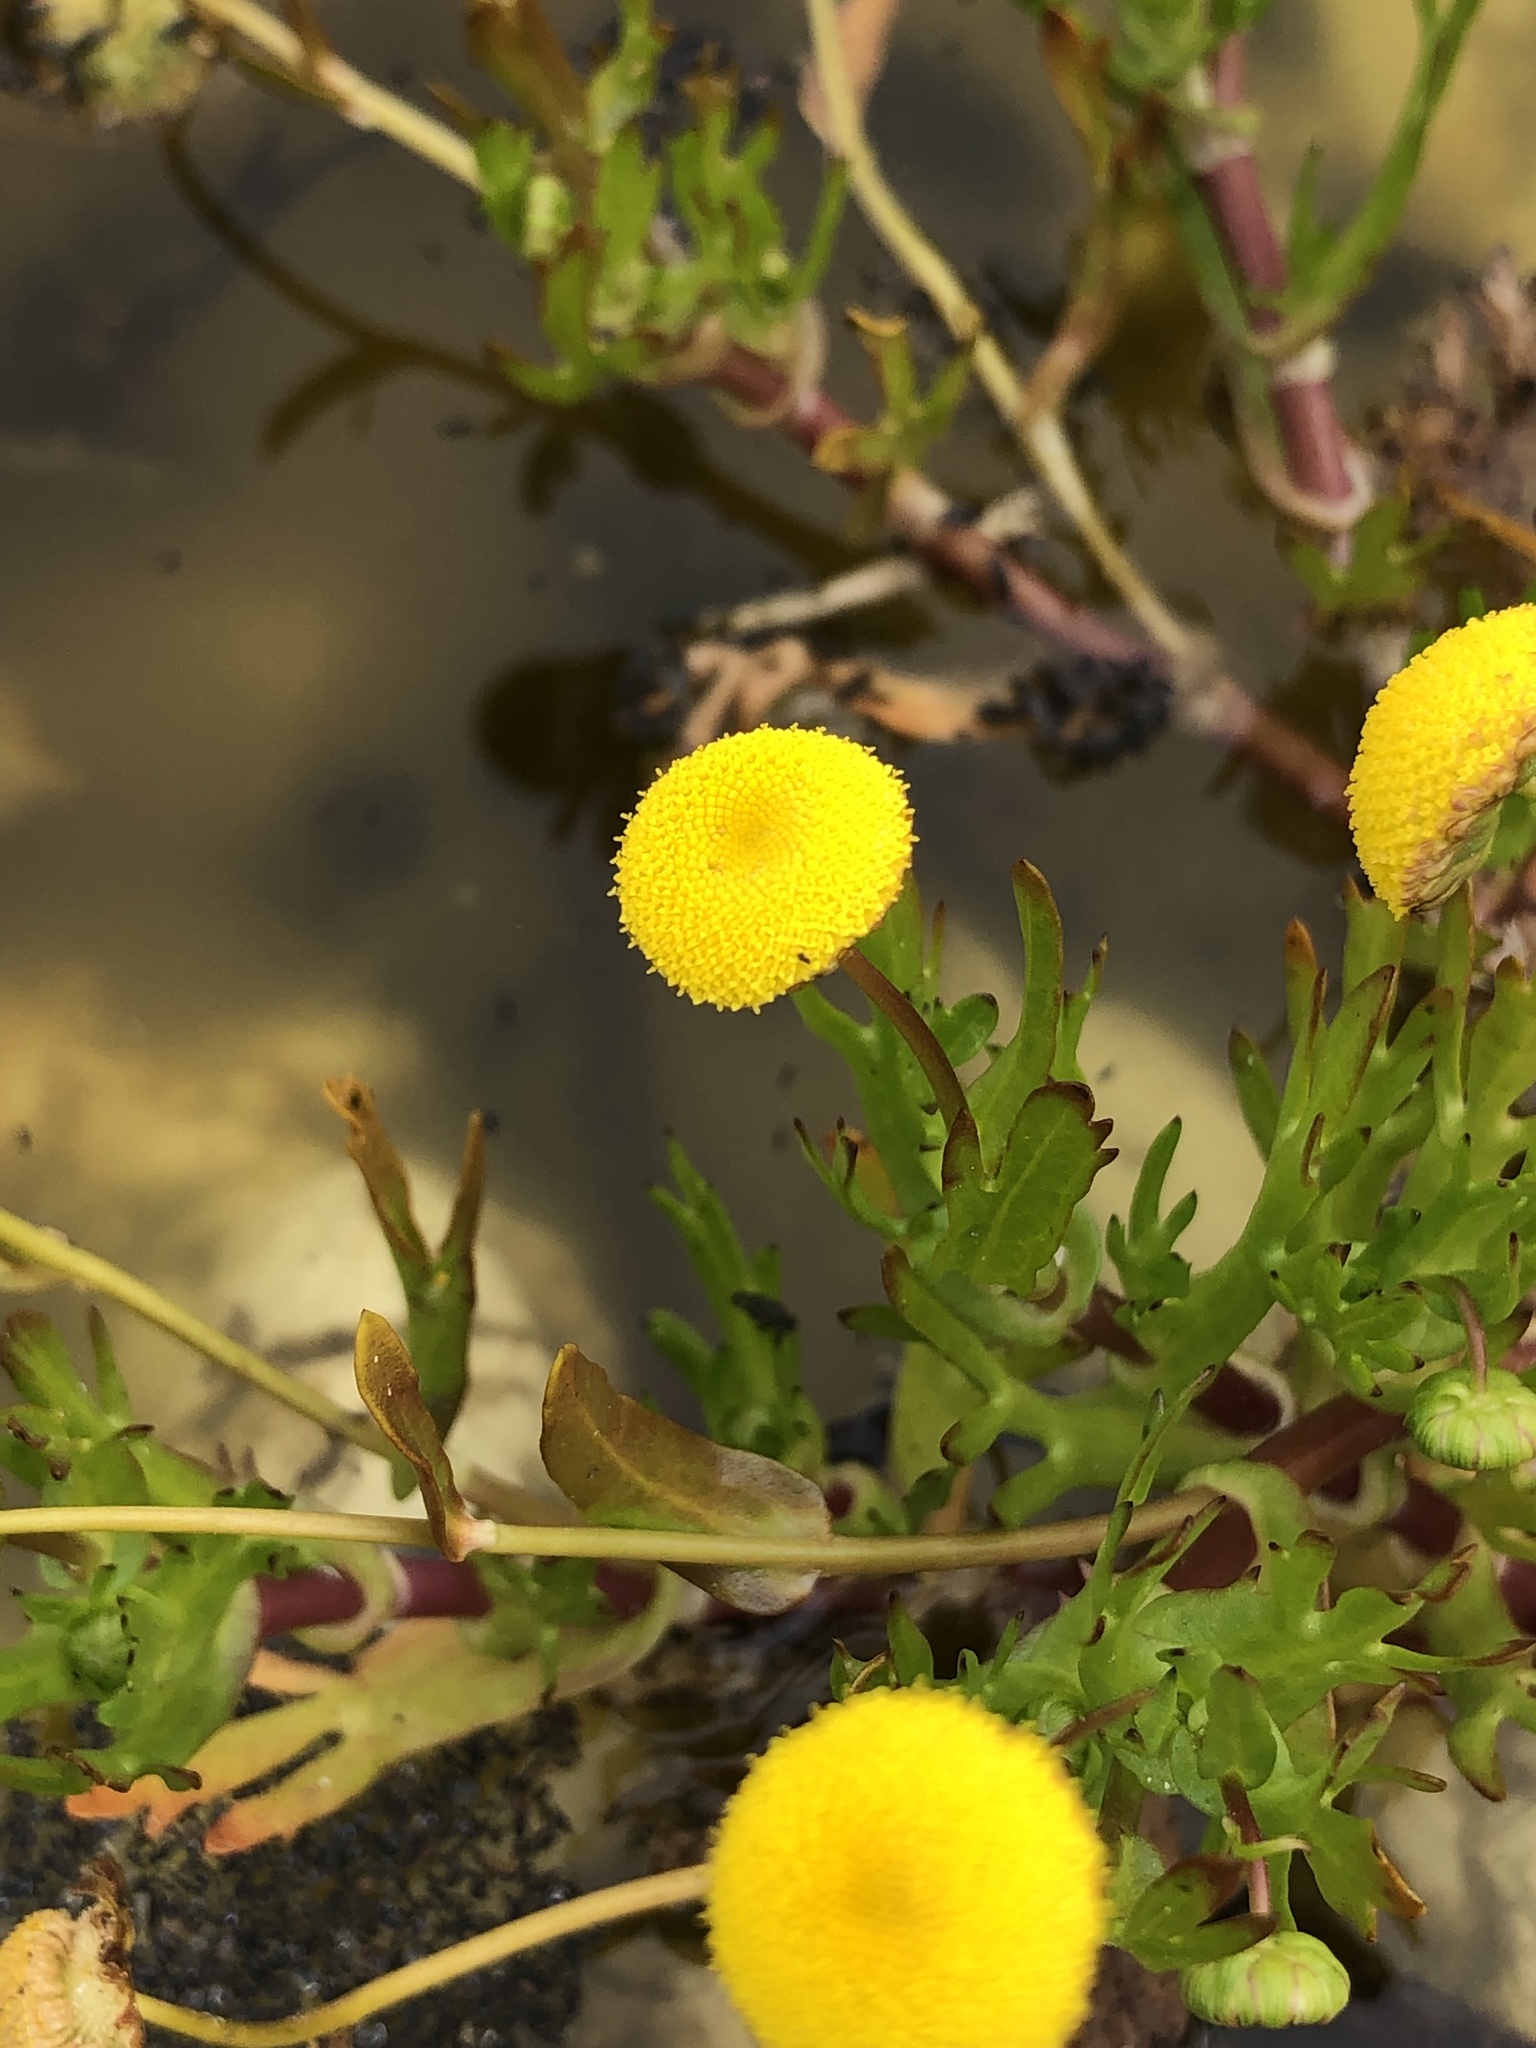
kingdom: Plantae
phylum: Tracheophyta
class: Magnoliopsida
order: Asterales
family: Asteraceae
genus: Cotula
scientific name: Cotula coronopifolia
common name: Buttonweed
